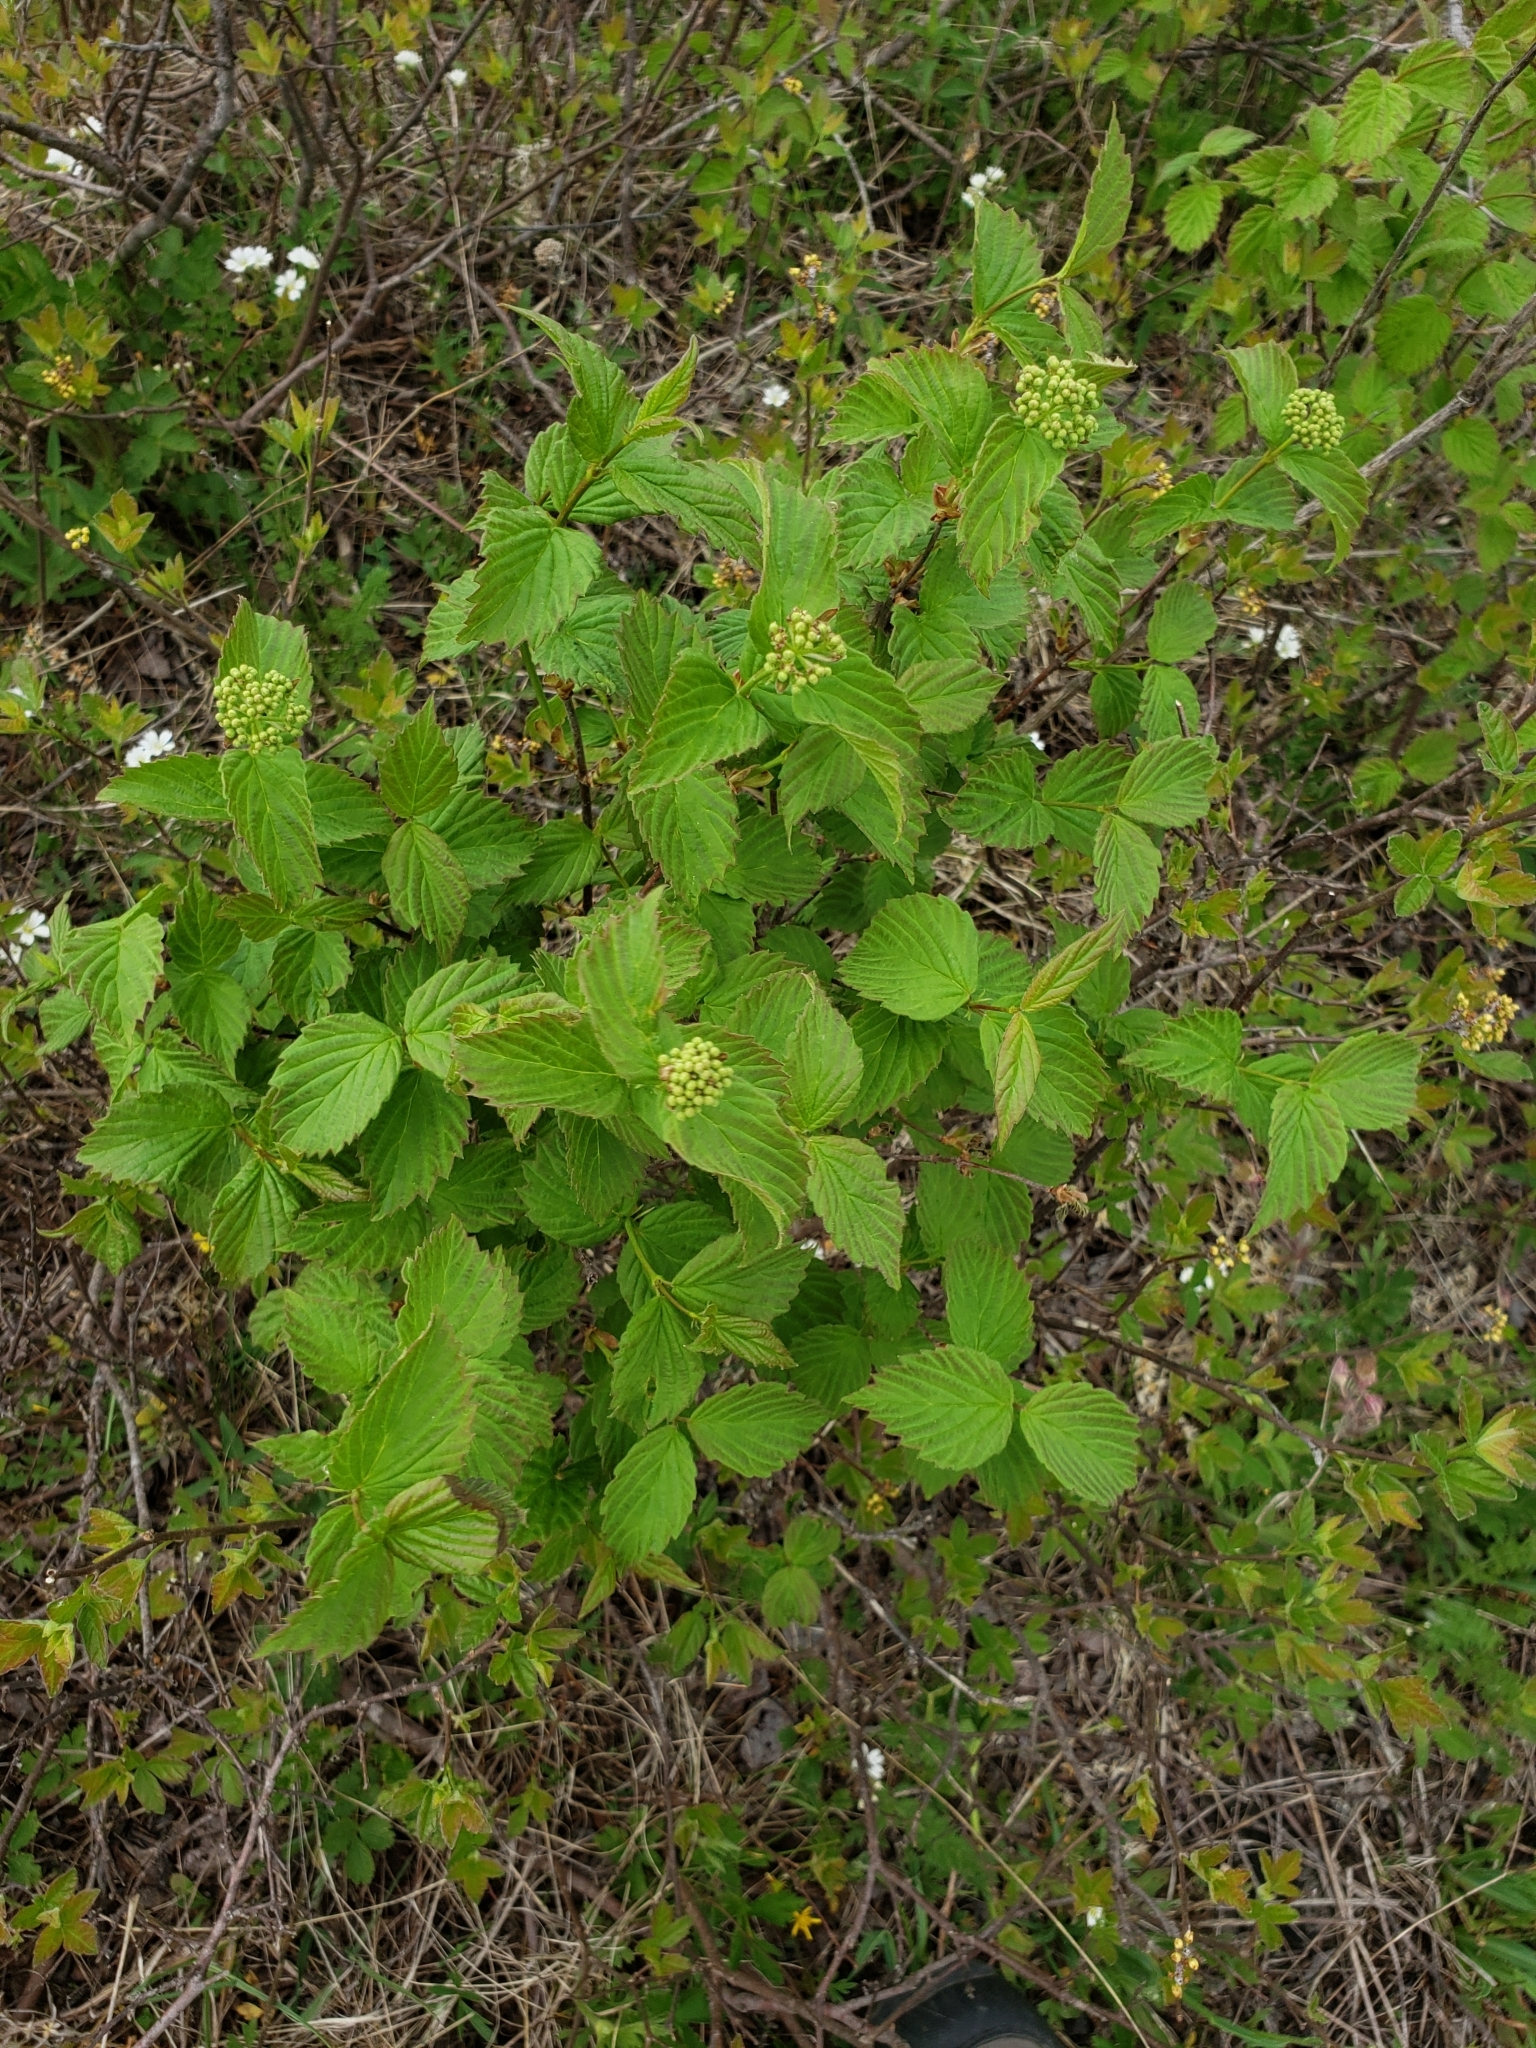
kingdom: Plantae
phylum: Tracheophyta
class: Magnoliopsida
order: Dipsacales
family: Viburnaceae
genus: Viburnum
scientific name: Viburnum rafinesqueanum
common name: Downy arrow-wood
